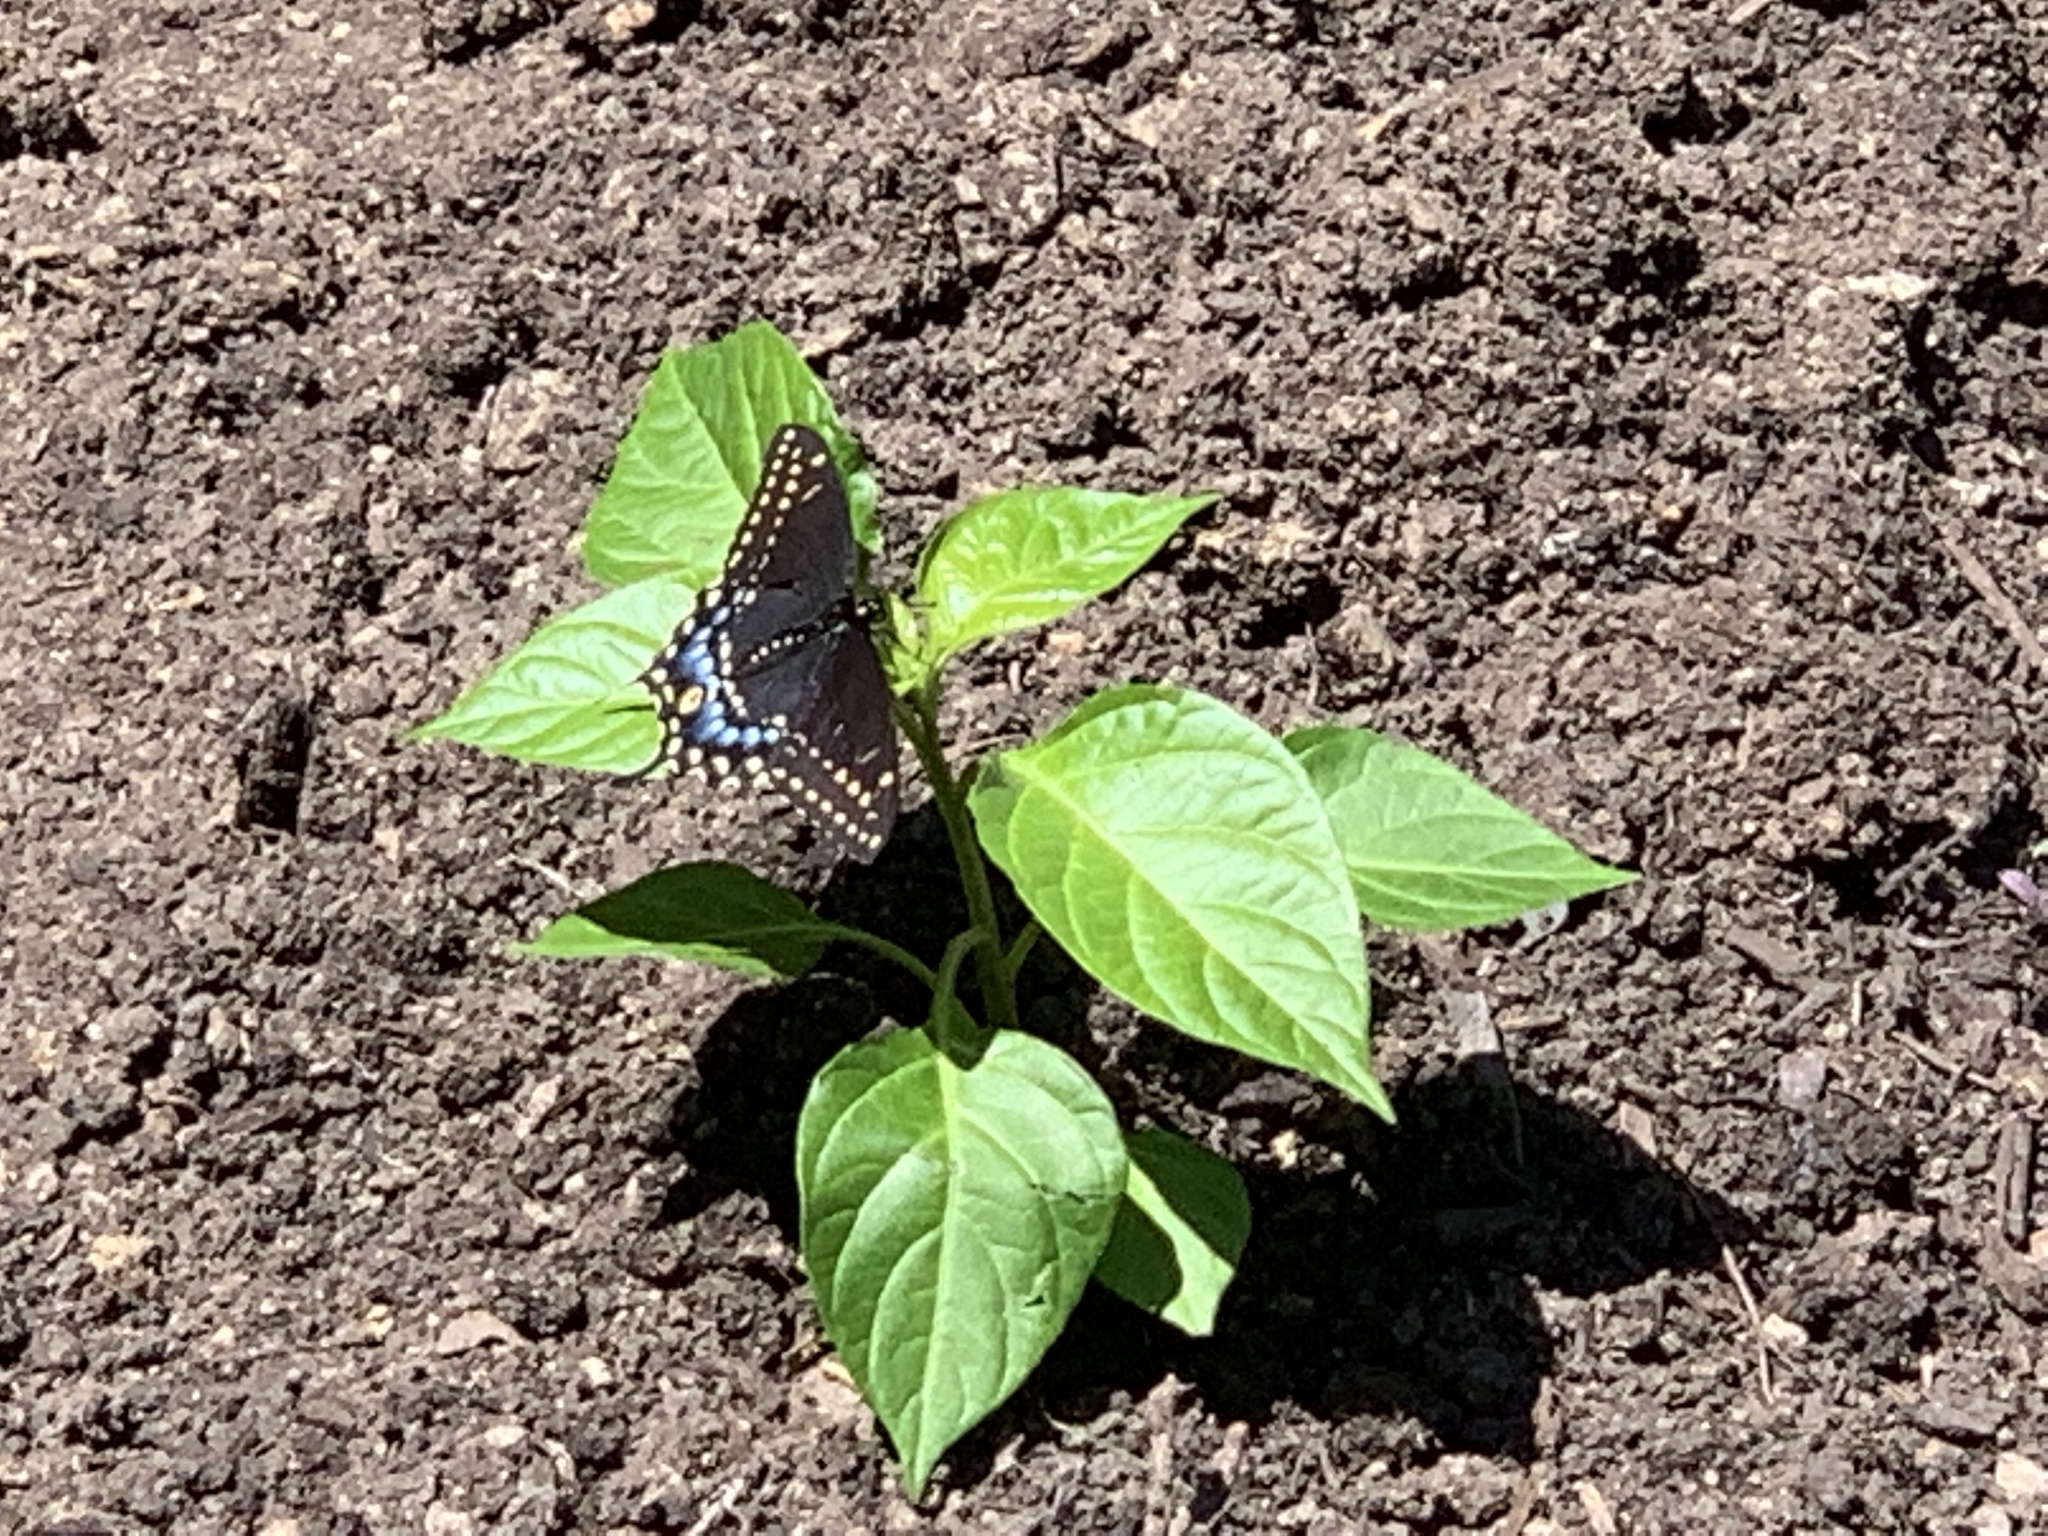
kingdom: Animalia
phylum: Arthropoda
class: Insecta
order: Lepidoptera
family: Papilionidae
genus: Papilio
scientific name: Papilio polyxenes
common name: Black swallowtail
